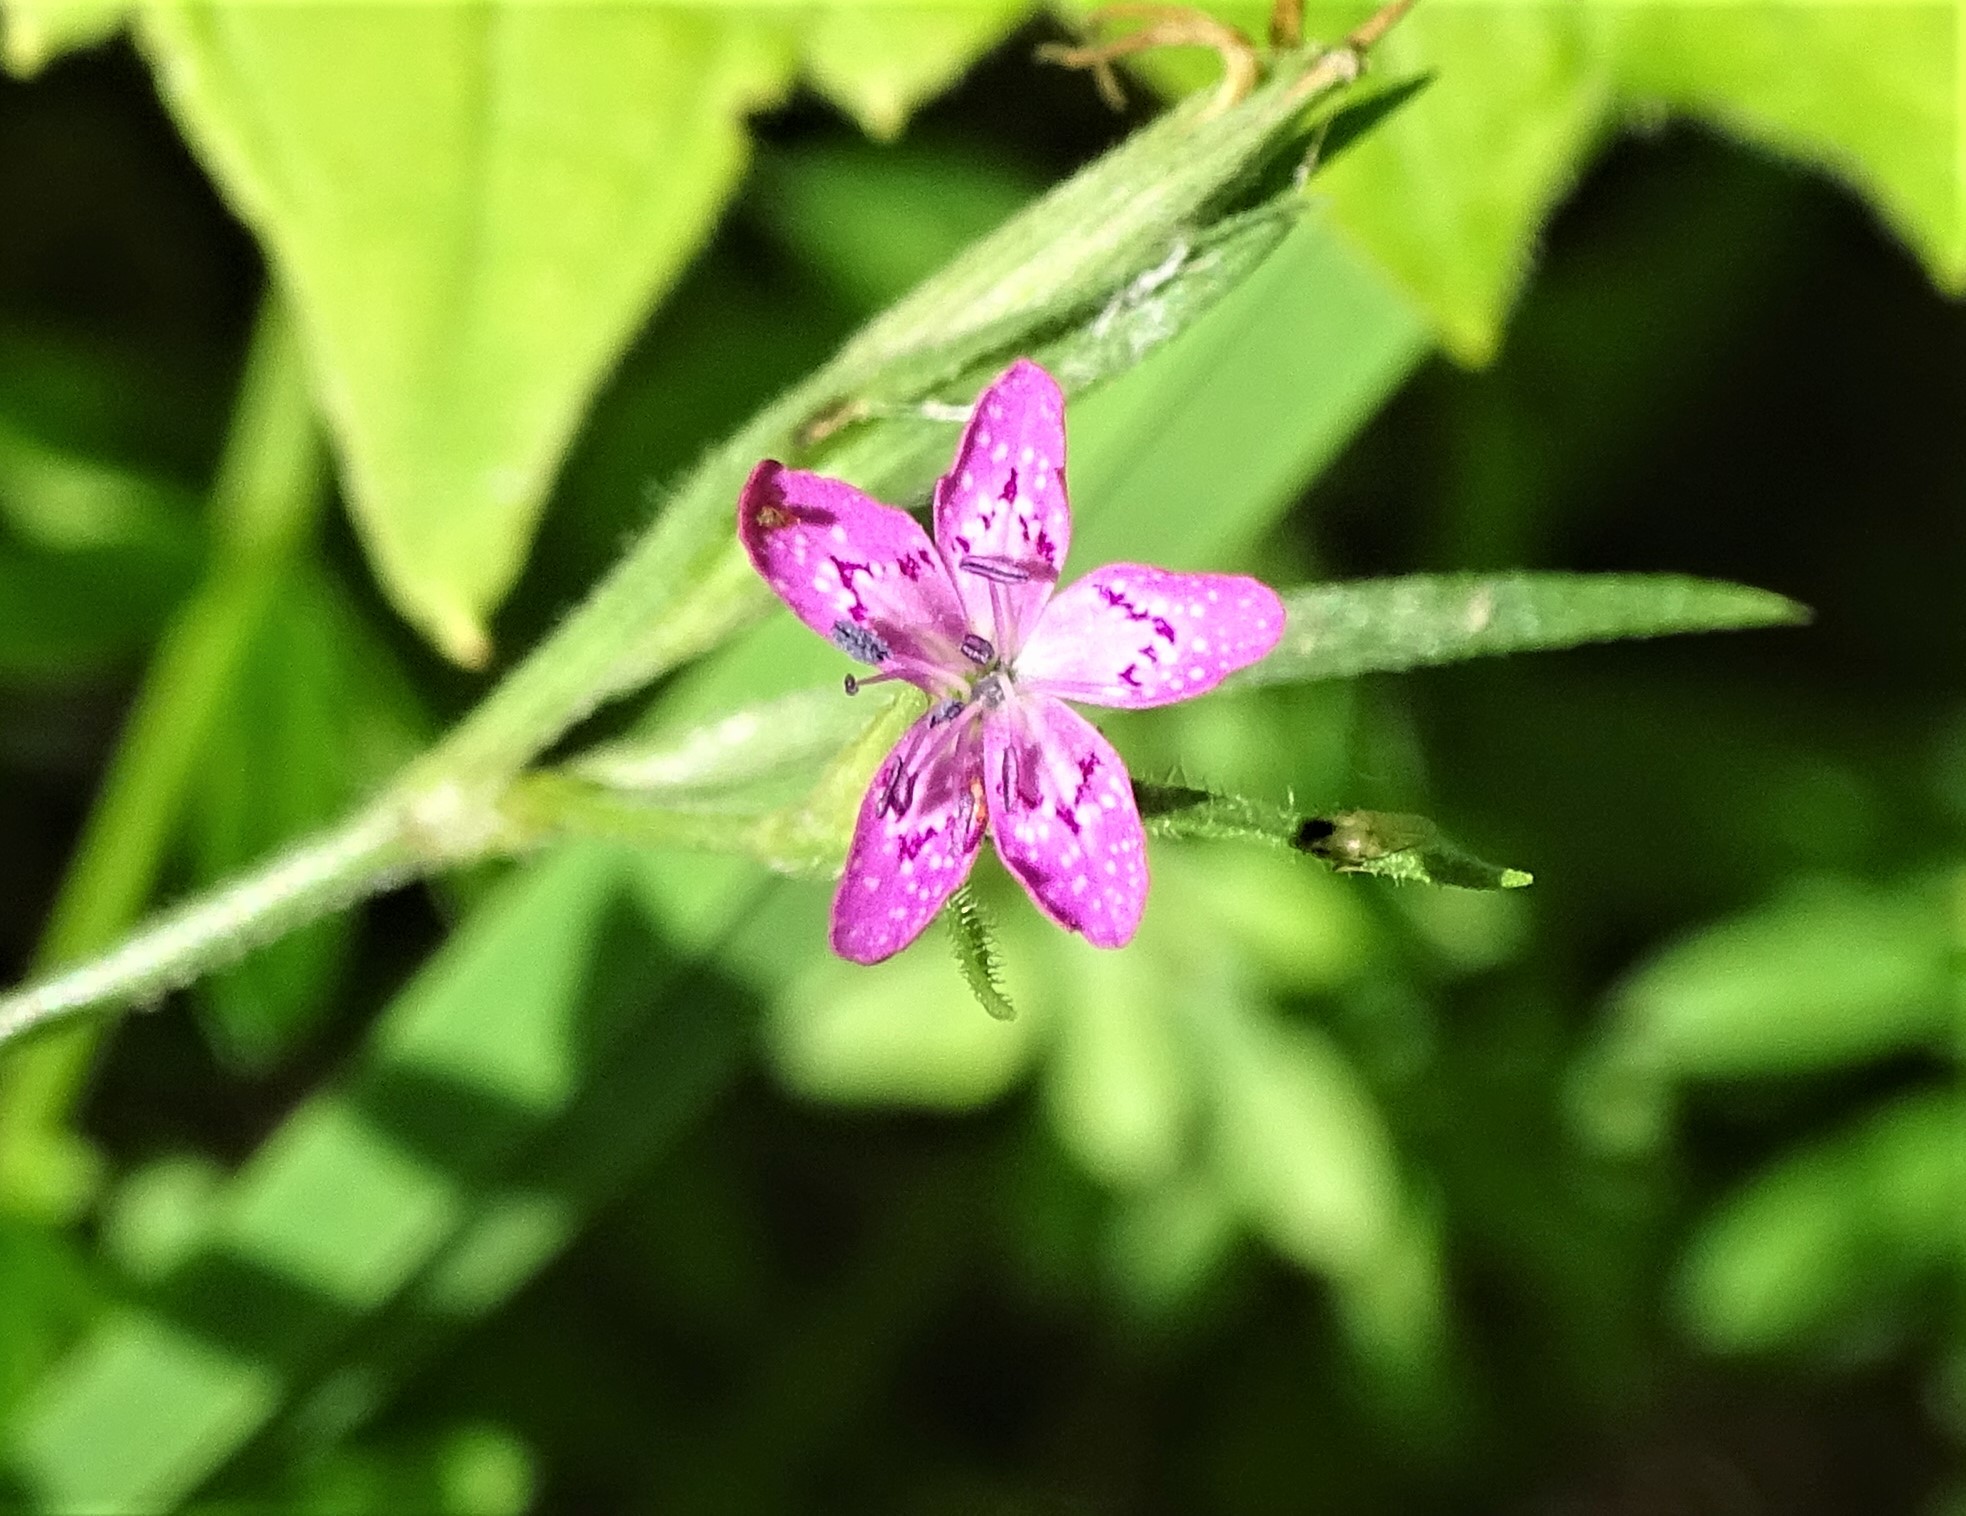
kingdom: Plantae
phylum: Tracheophyta
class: Magnoliopsida
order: Caryophyllales
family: Caryophyllaceae
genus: Dianthus
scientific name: Dianthus armeria
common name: Deptford pink
